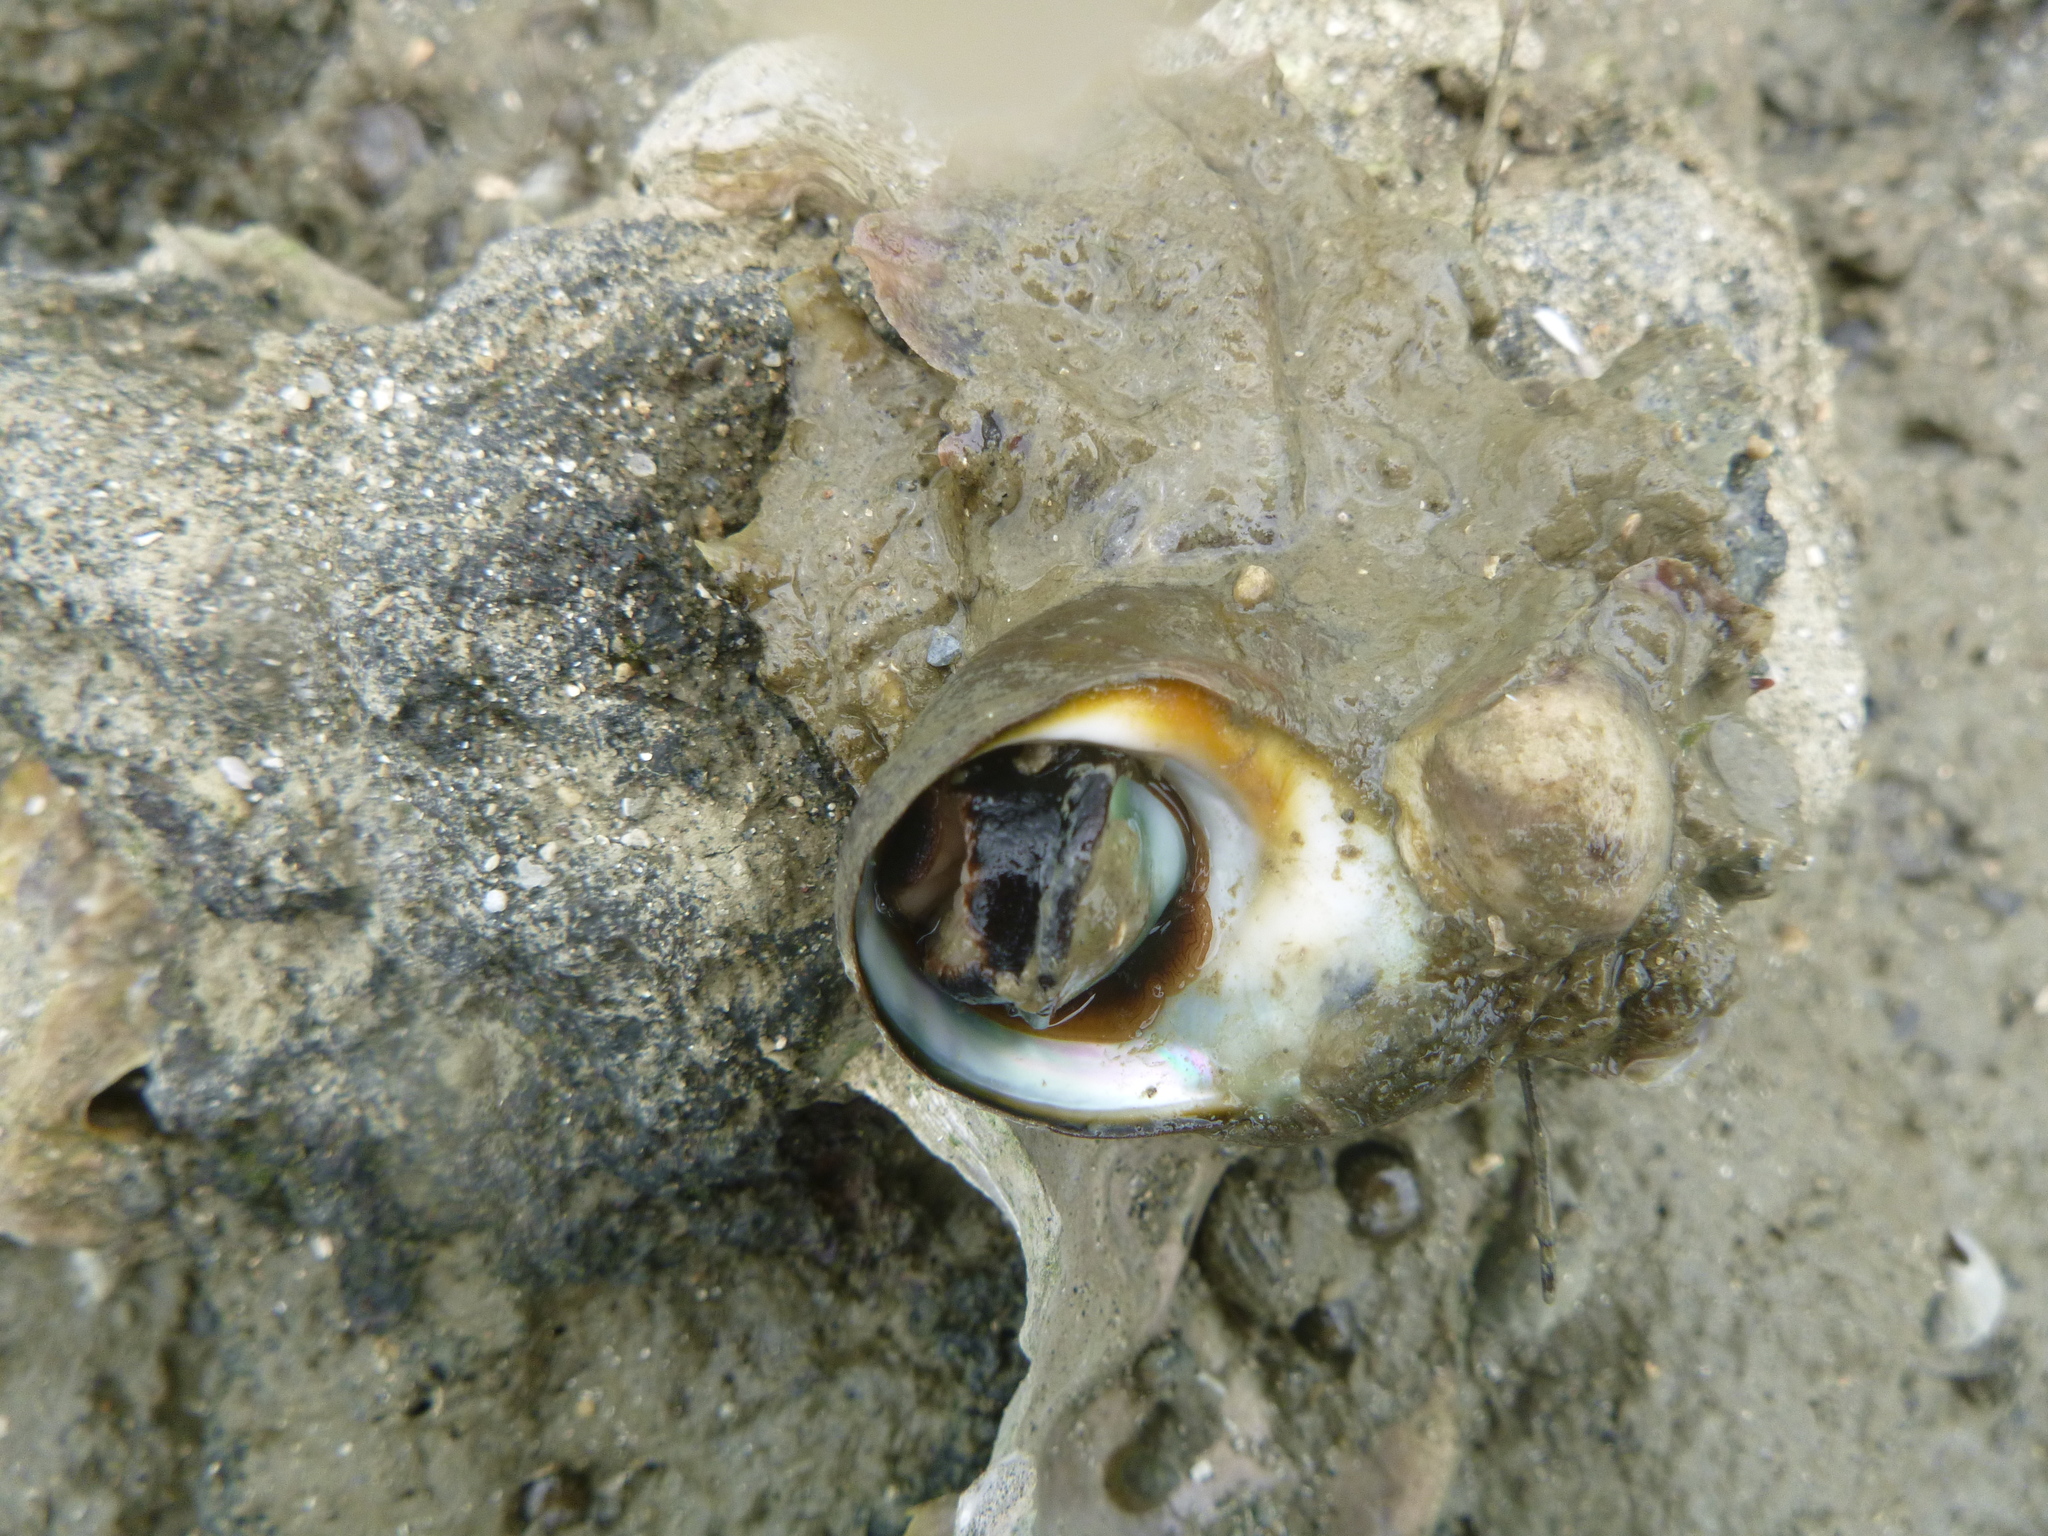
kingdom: Animalia
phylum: Mollusca
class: Gastropoda
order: Trochida
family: Turbinidae
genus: Lunella
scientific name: Lunella smaragda
